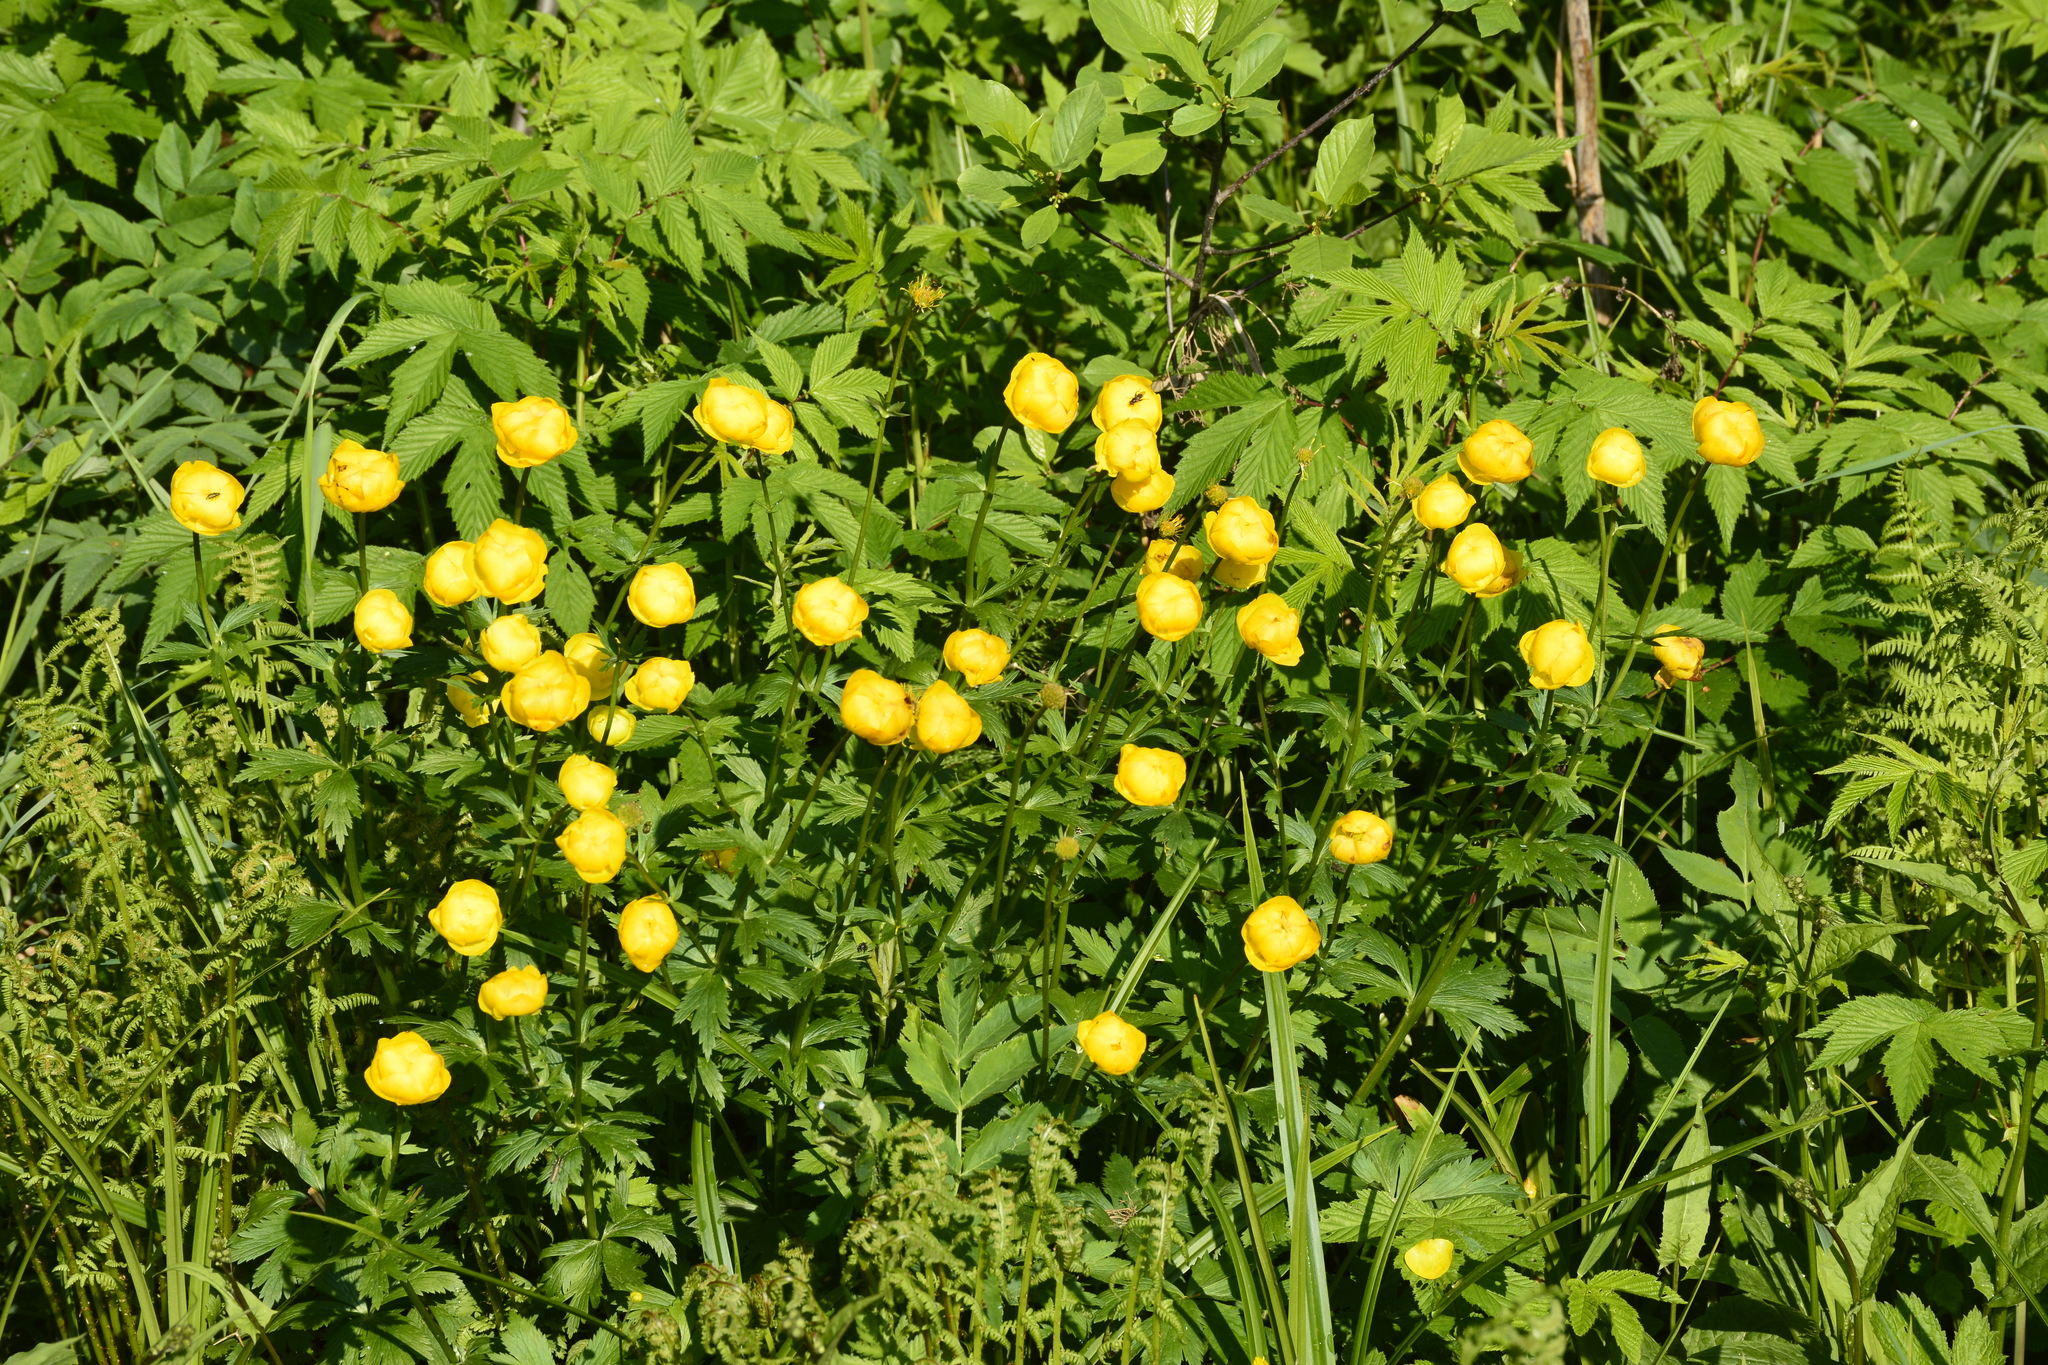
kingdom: Plantae
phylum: Tracheophyta
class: Magnoliopsida
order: Ranunculales
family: Ranunculaceae
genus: Trollius
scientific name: Trollius europaeus
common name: European globeflower
